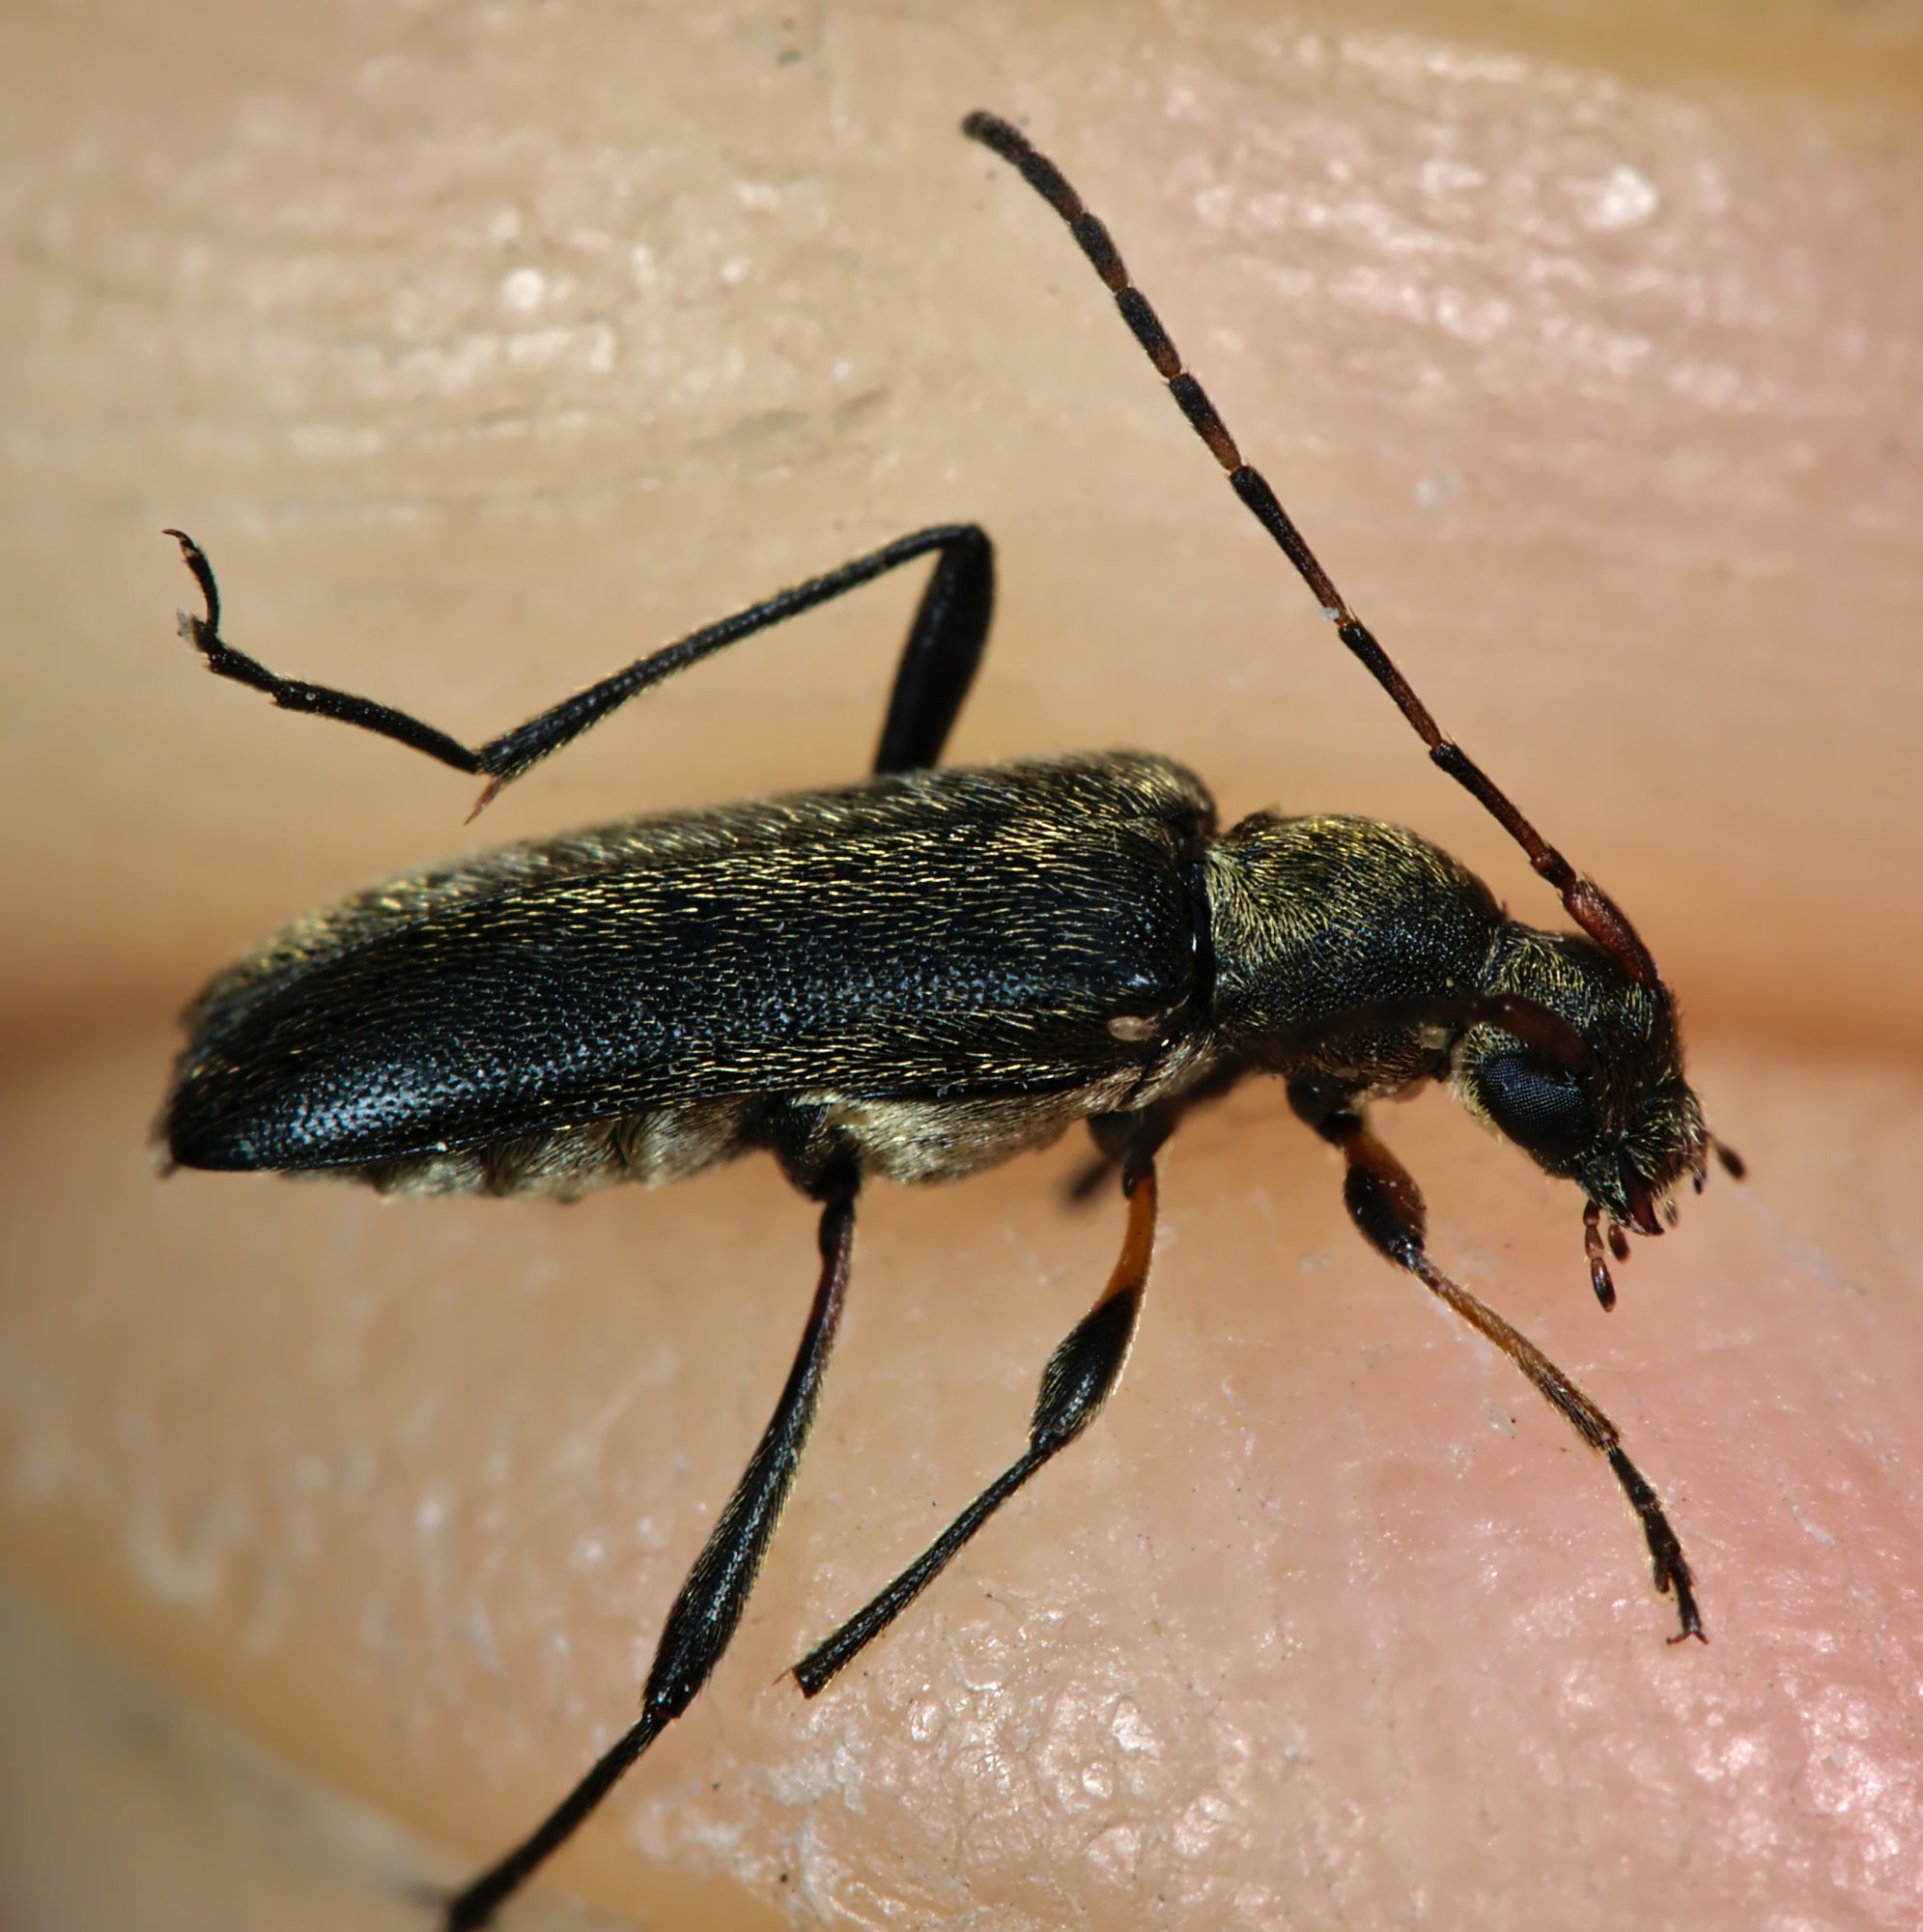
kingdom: Animalia
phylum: Arthropoda
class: Insecta
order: Coleoptera
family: Cerambycidae
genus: Grammoptera
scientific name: Grammoptera ruficornis
